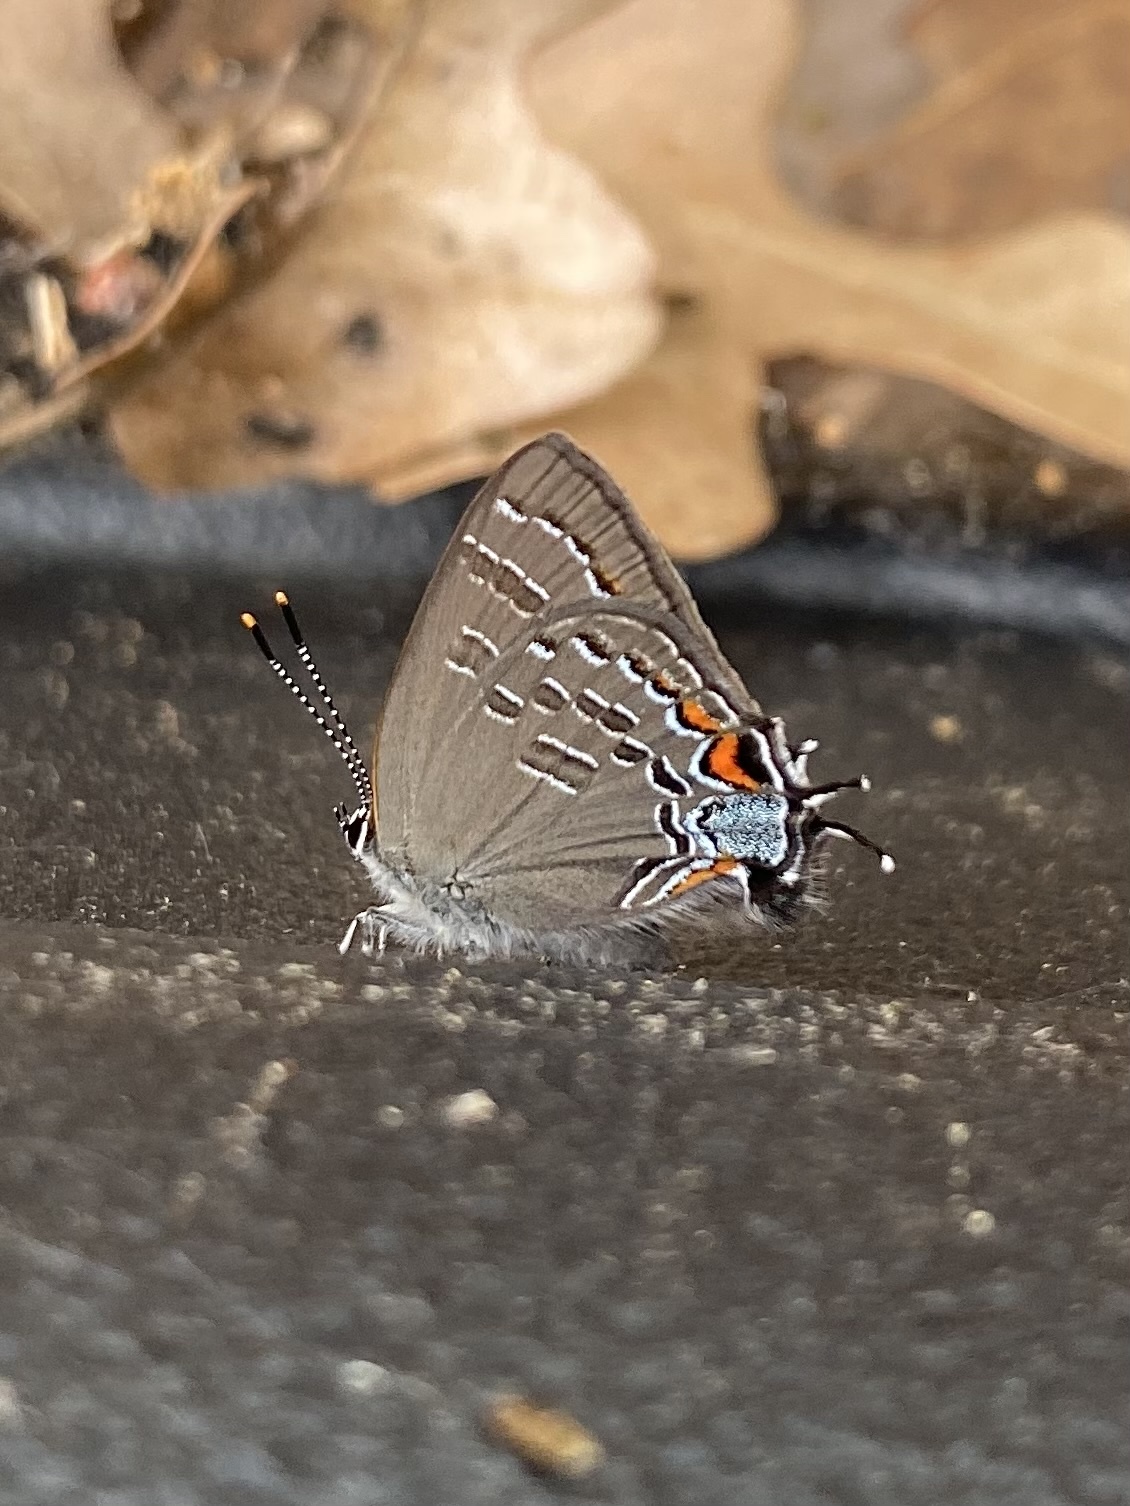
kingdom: Animalia
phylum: Arthropoda
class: Insecta
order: Lepidoptera
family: Lycaenidae
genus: Satyrium
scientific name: Satyrium calanus
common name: Banded hairstreak
